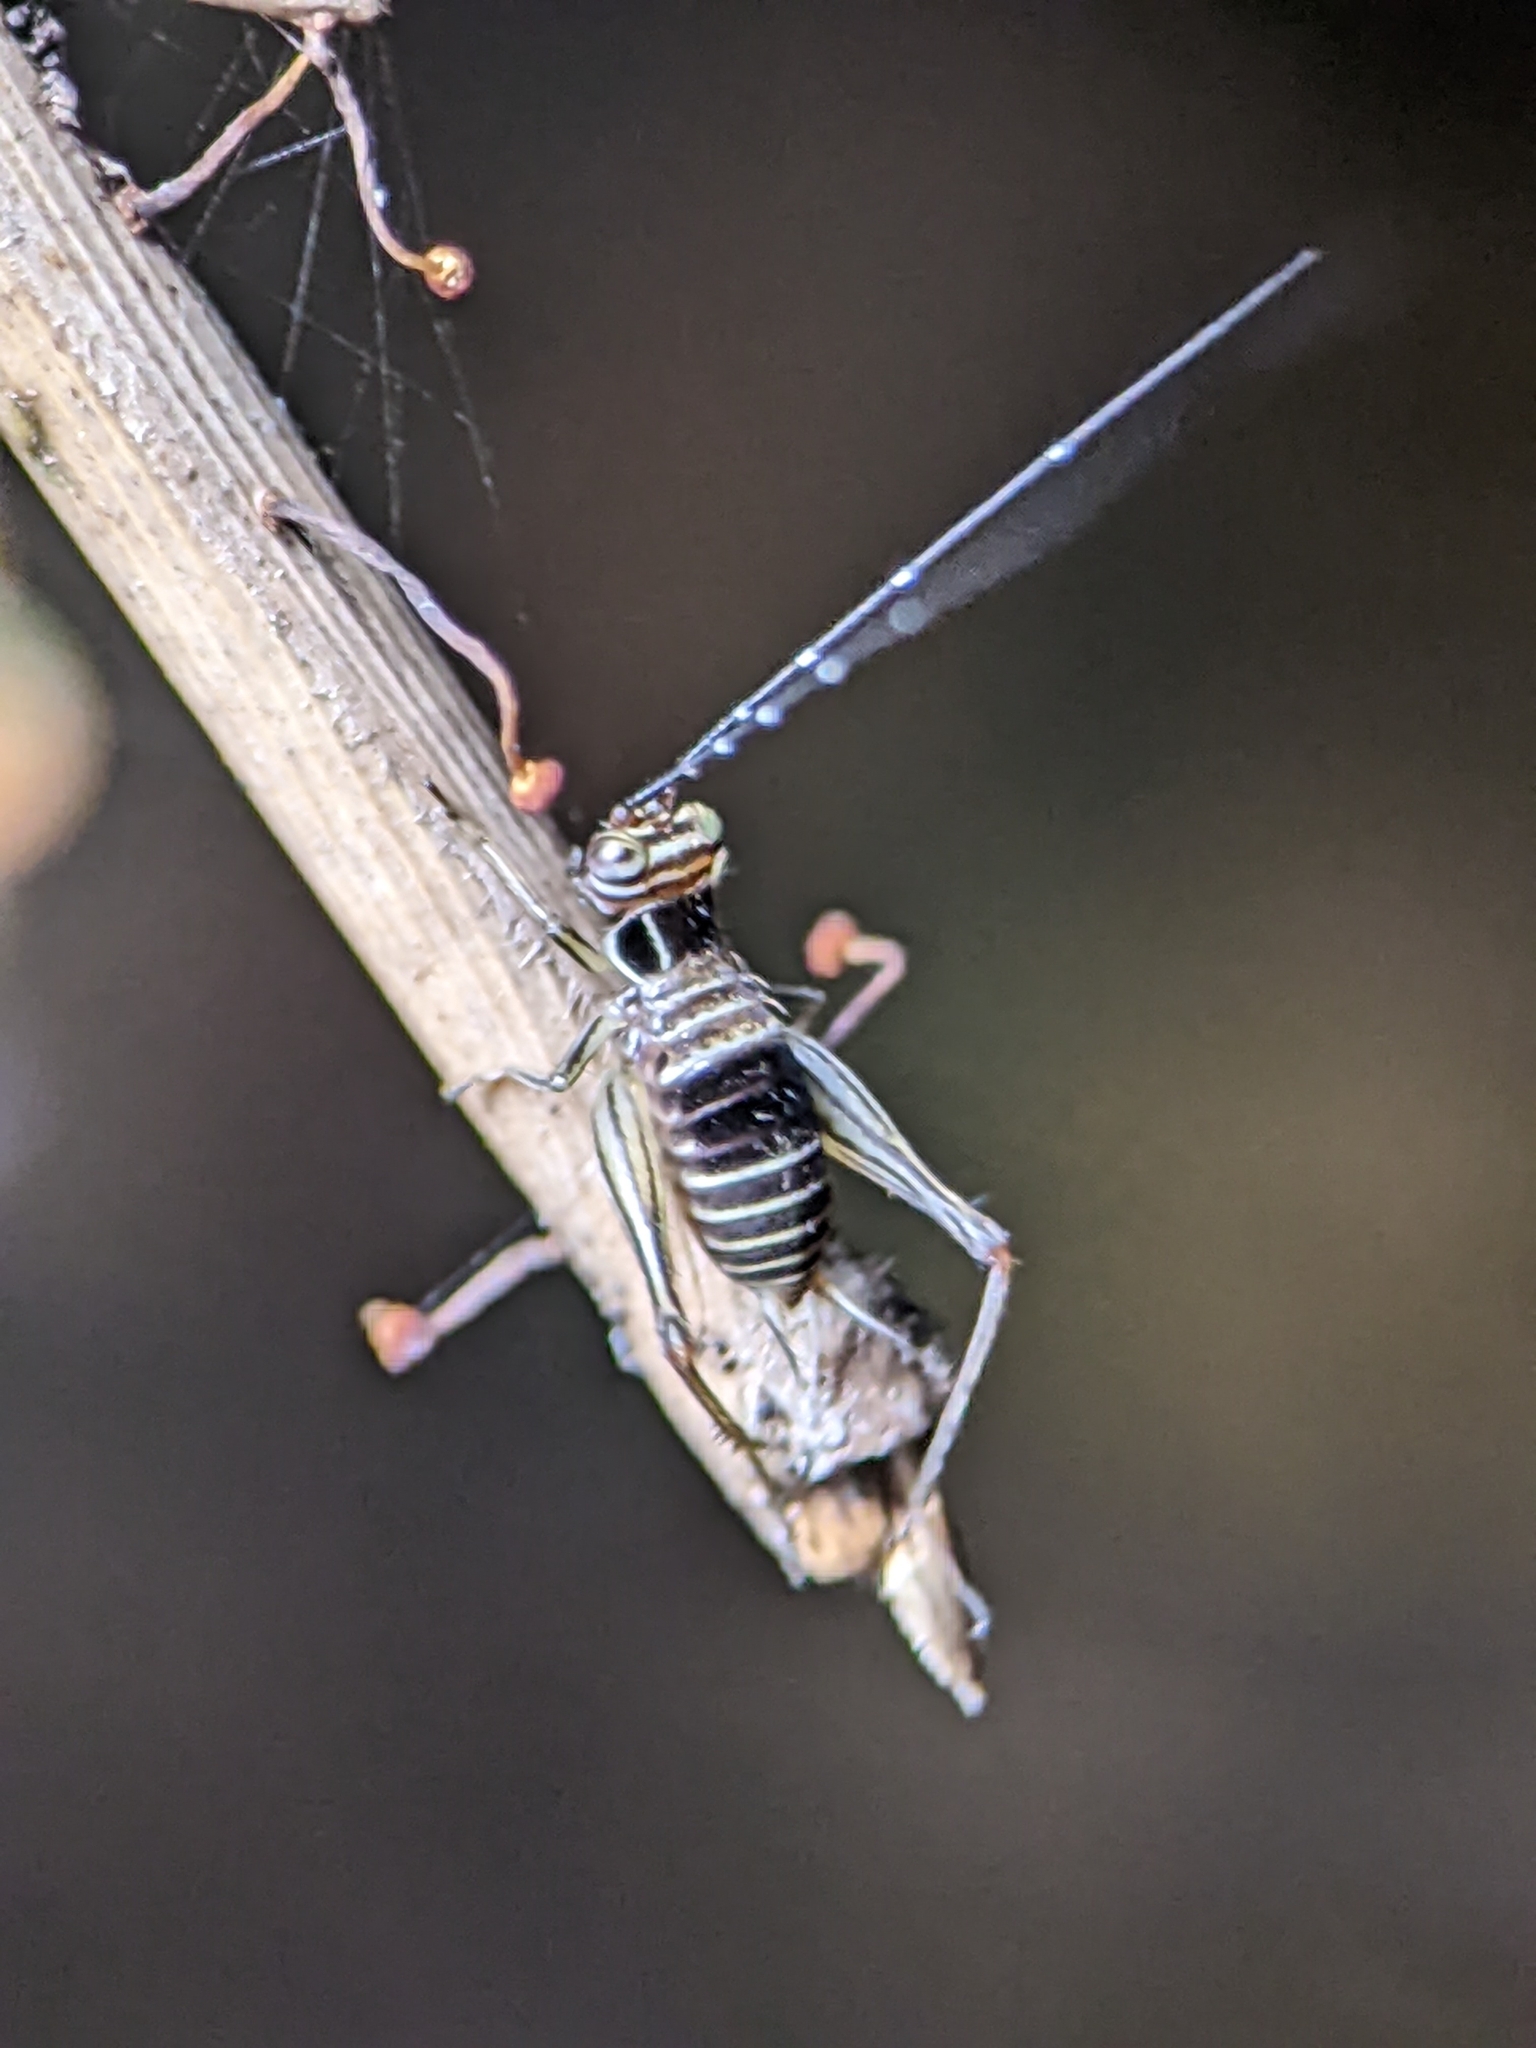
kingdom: Animalia
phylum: Arthropoda
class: Insecta
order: Orthoptera
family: Gryllidae
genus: Nisitrus
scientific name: Nisitrus malaya
